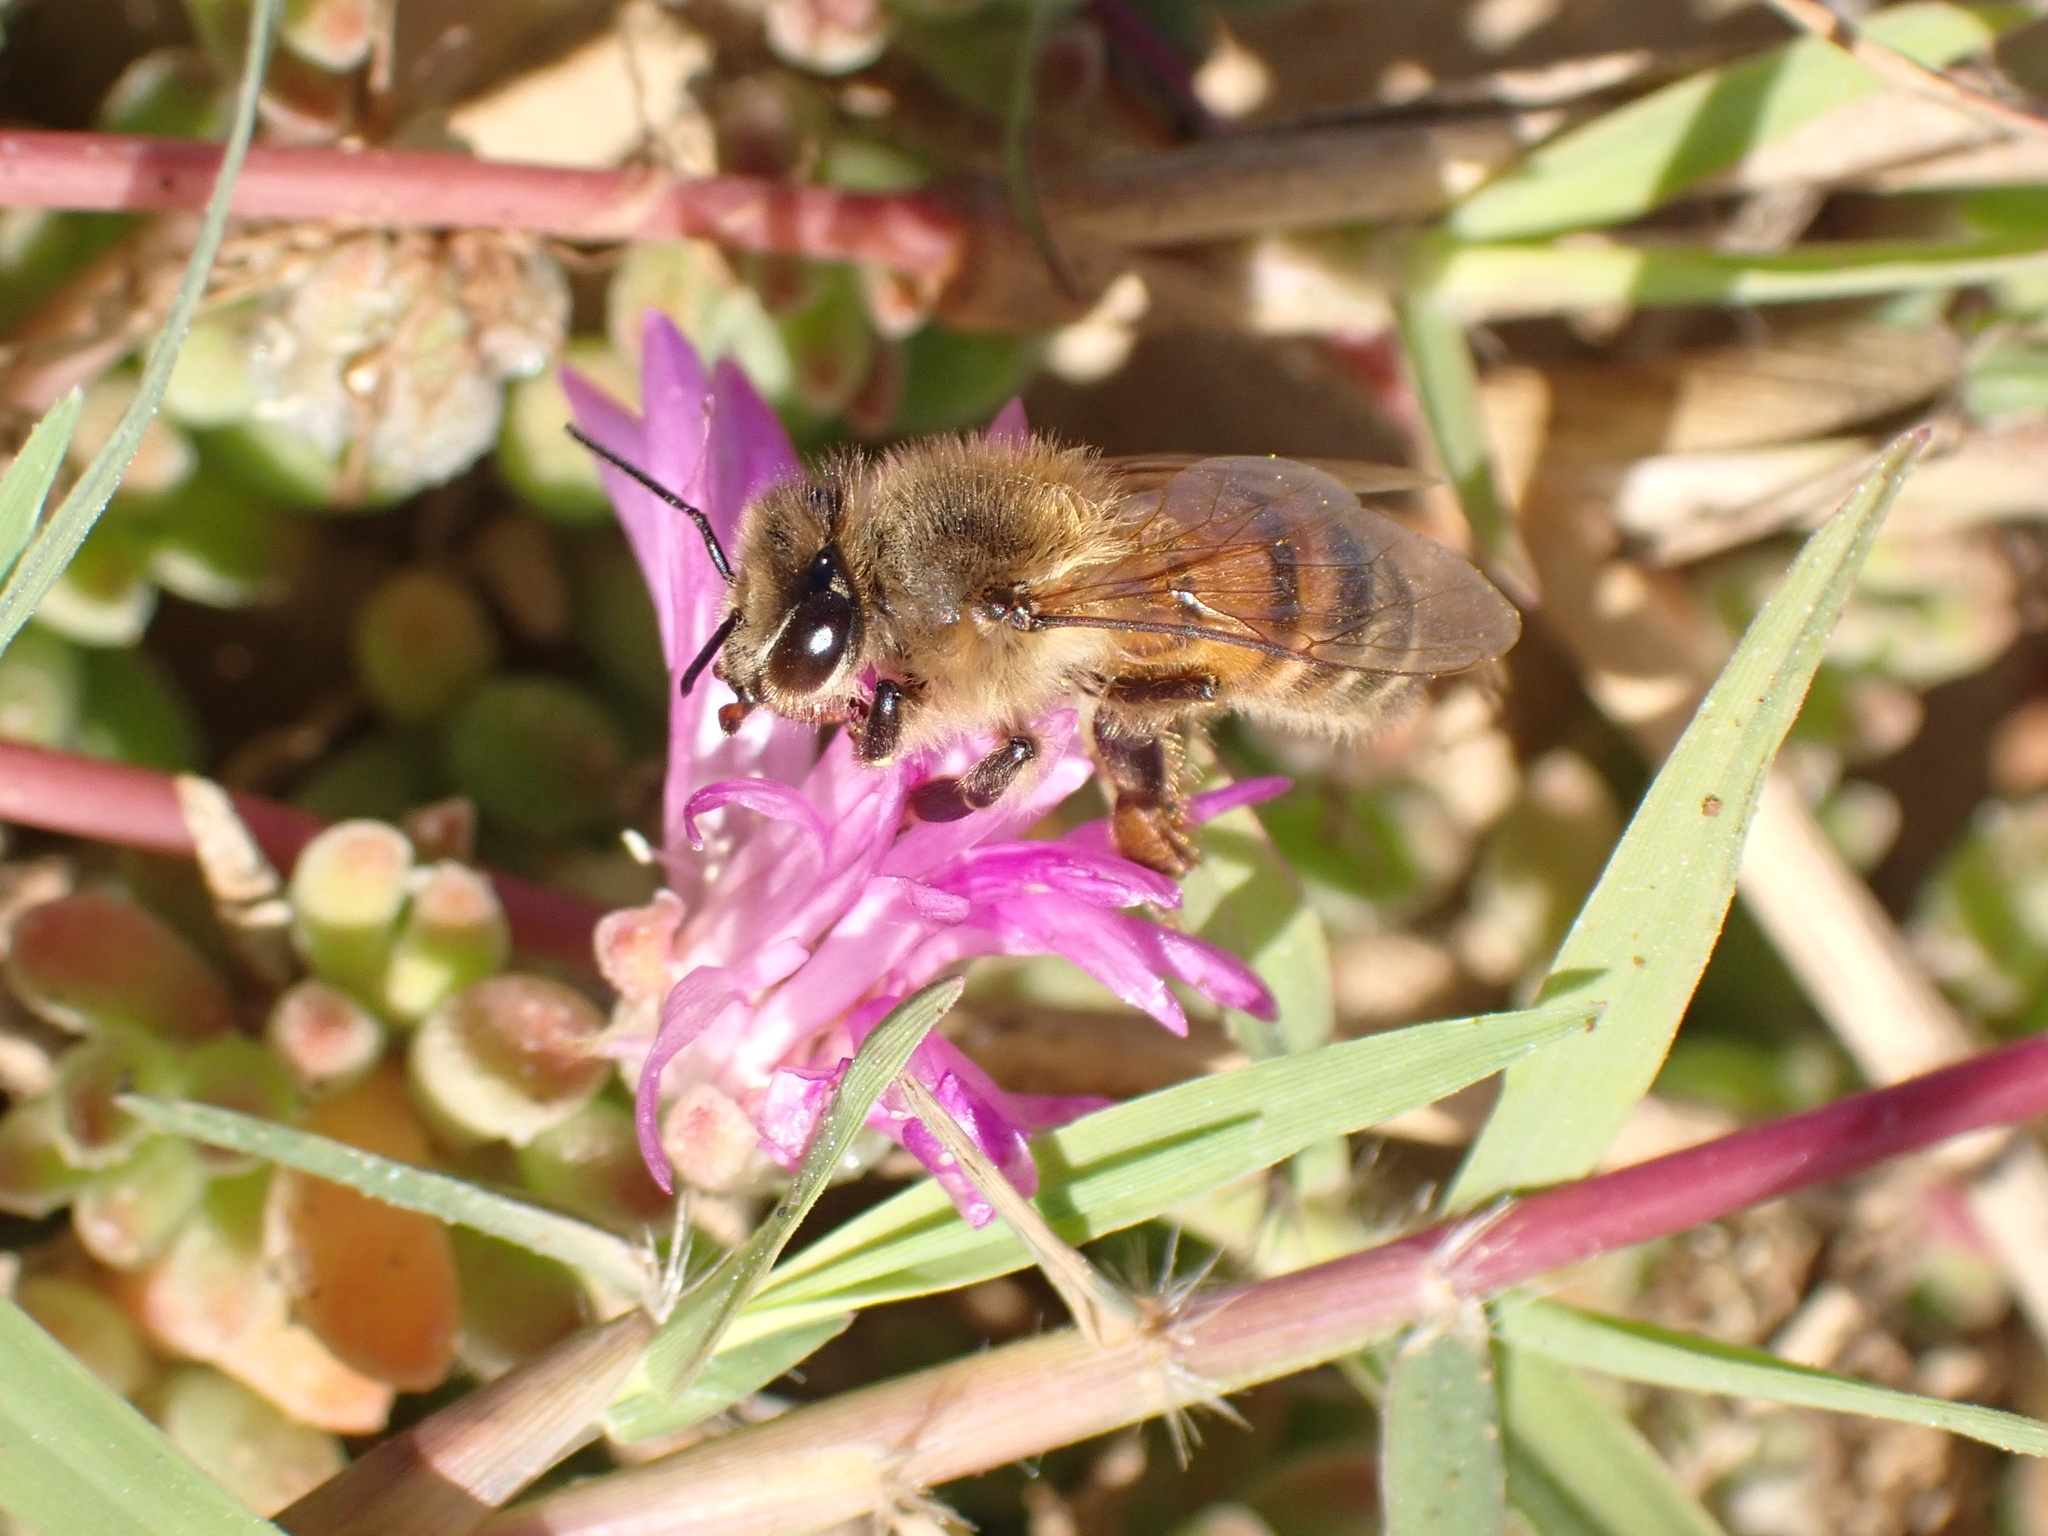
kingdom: Animalia
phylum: Arthropoda
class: Insecta
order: Hymenoptera
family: Apidae
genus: Apis
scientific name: Apis mellifera
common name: Honey bee
